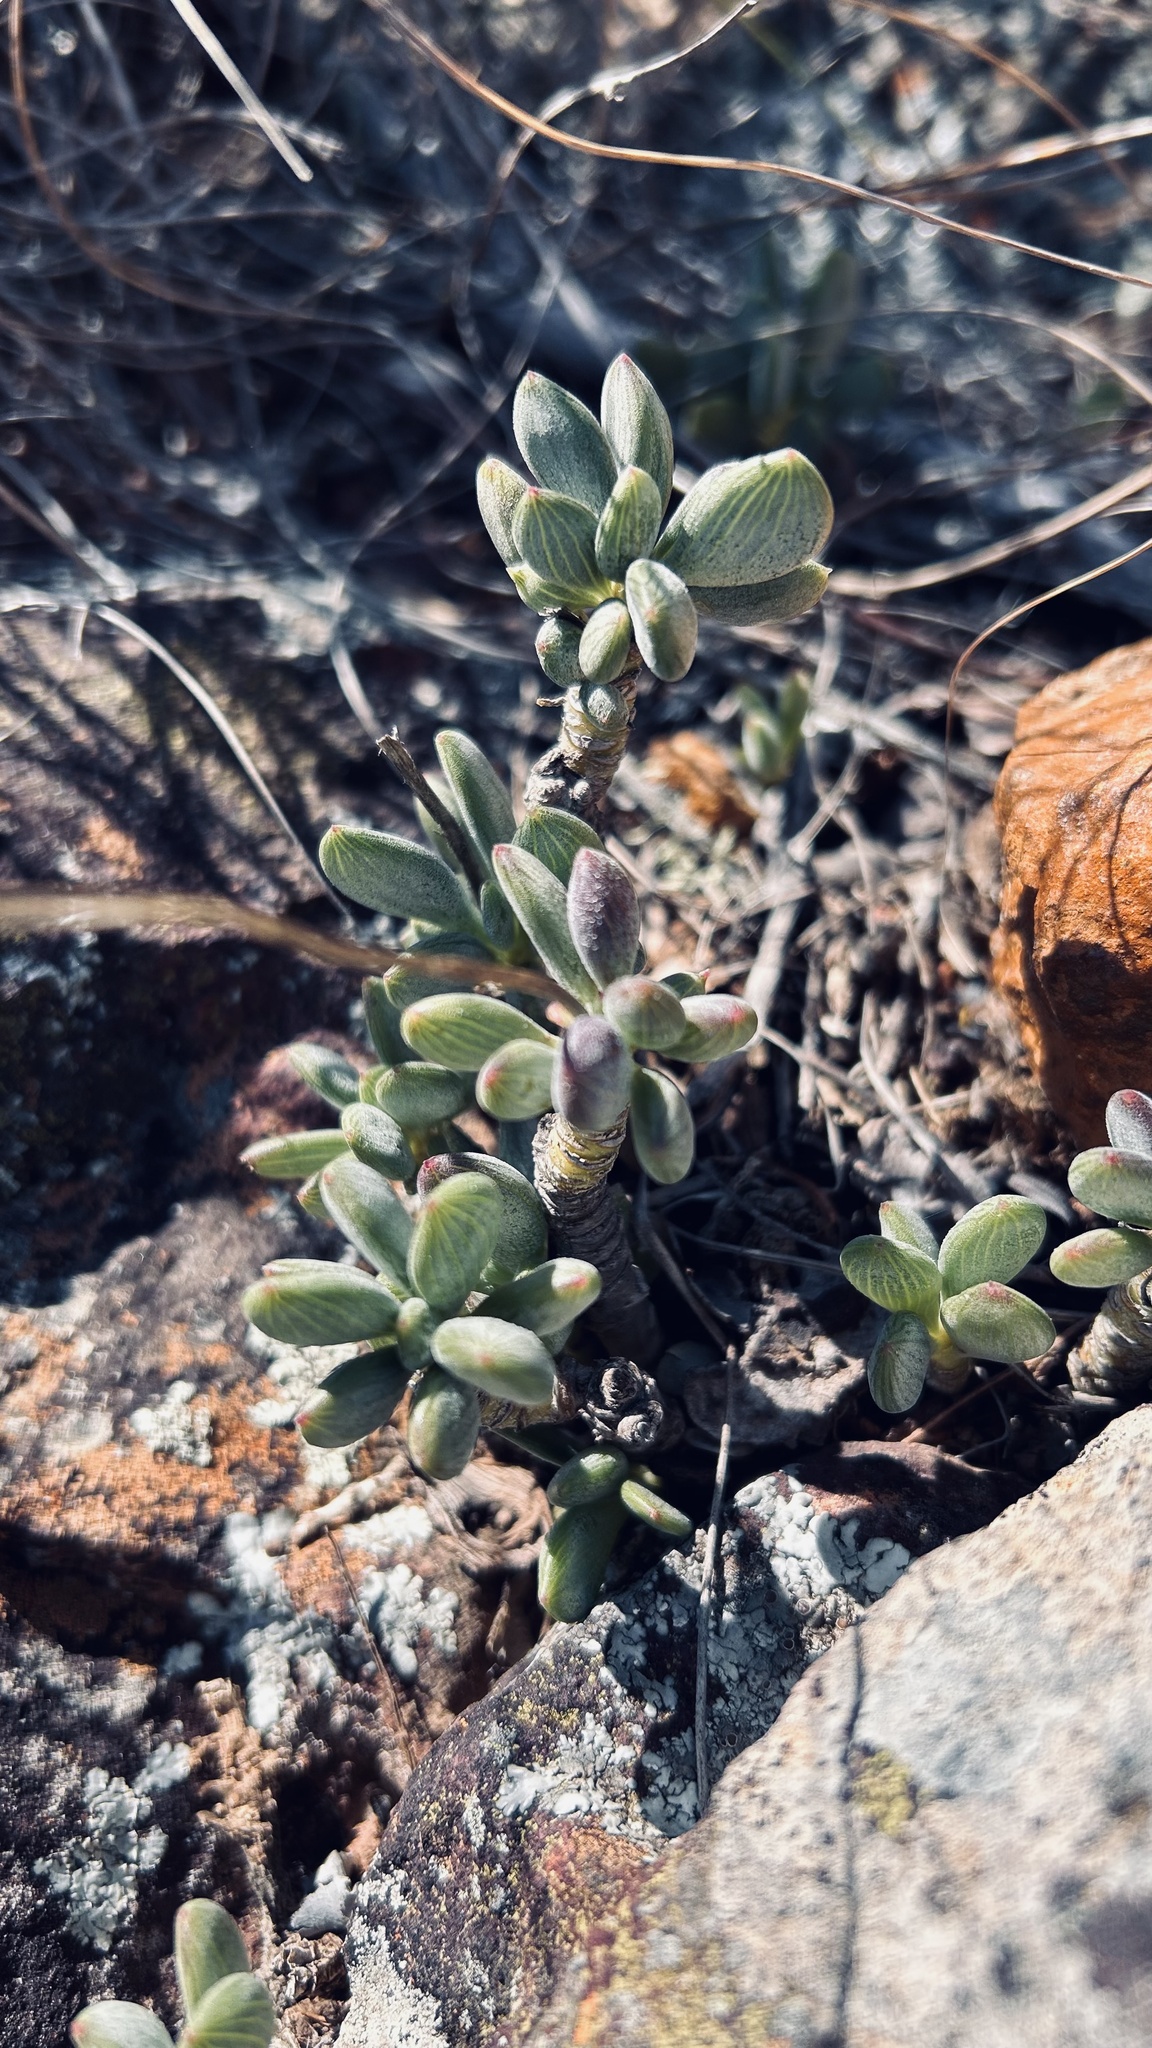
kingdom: Plantae
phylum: Tracheophyta
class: Magnoliopsida
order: Asterales
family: Asteraceae
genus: Curio
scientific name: Curio archeri
